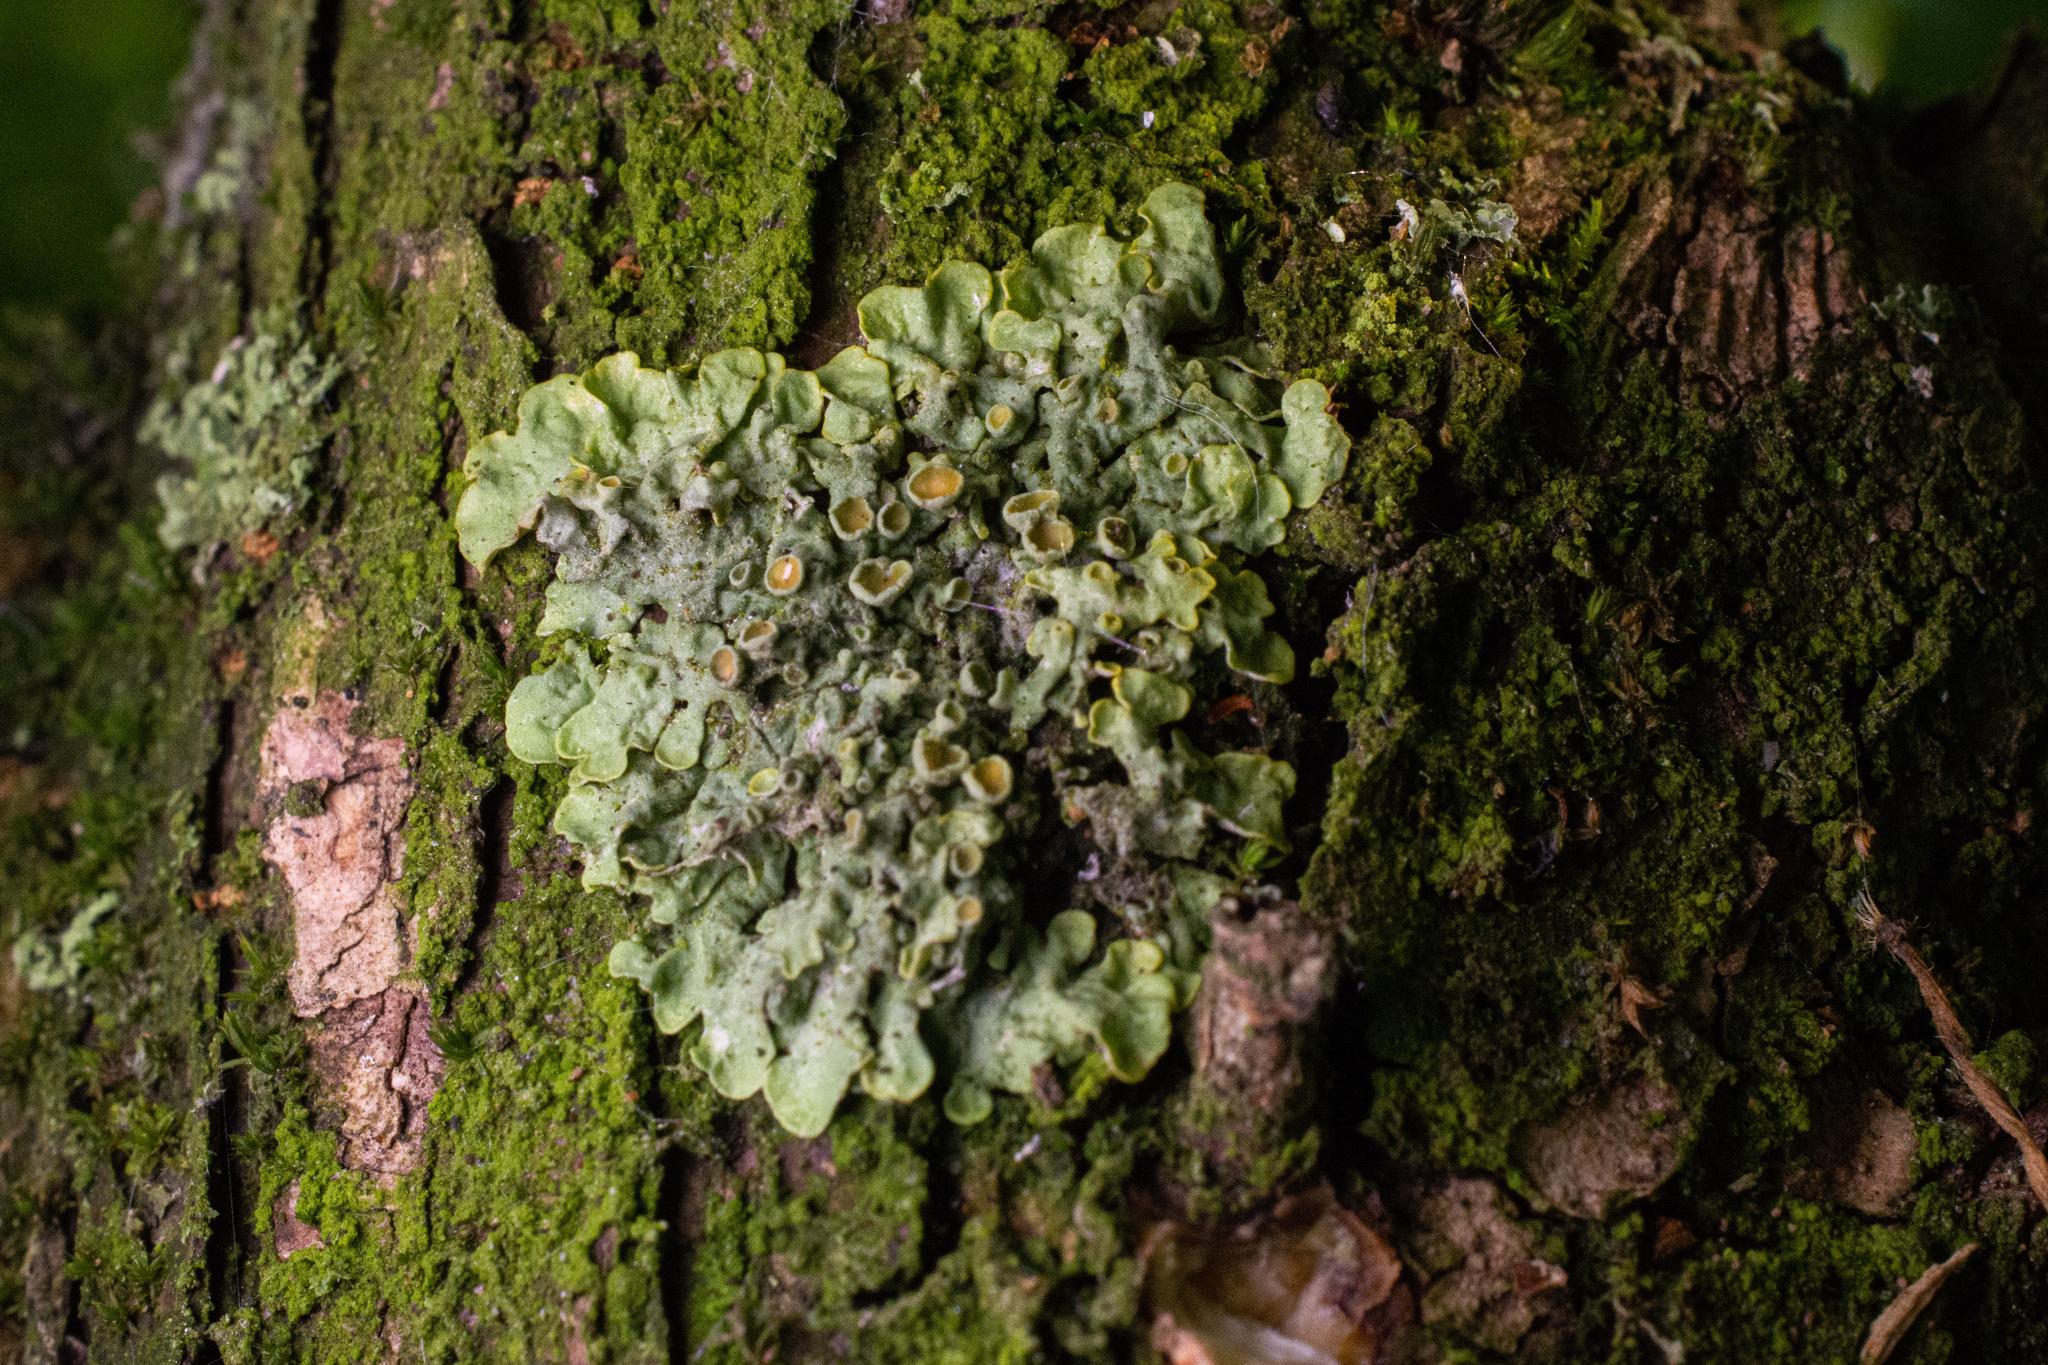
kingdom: Fungi
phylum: Ascomycota
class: Lecanoromycetes
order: Teloschistales
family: Teloschistaceae
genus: Xanthoria
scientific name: Xanthoria parietina
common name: Common orange lichen
